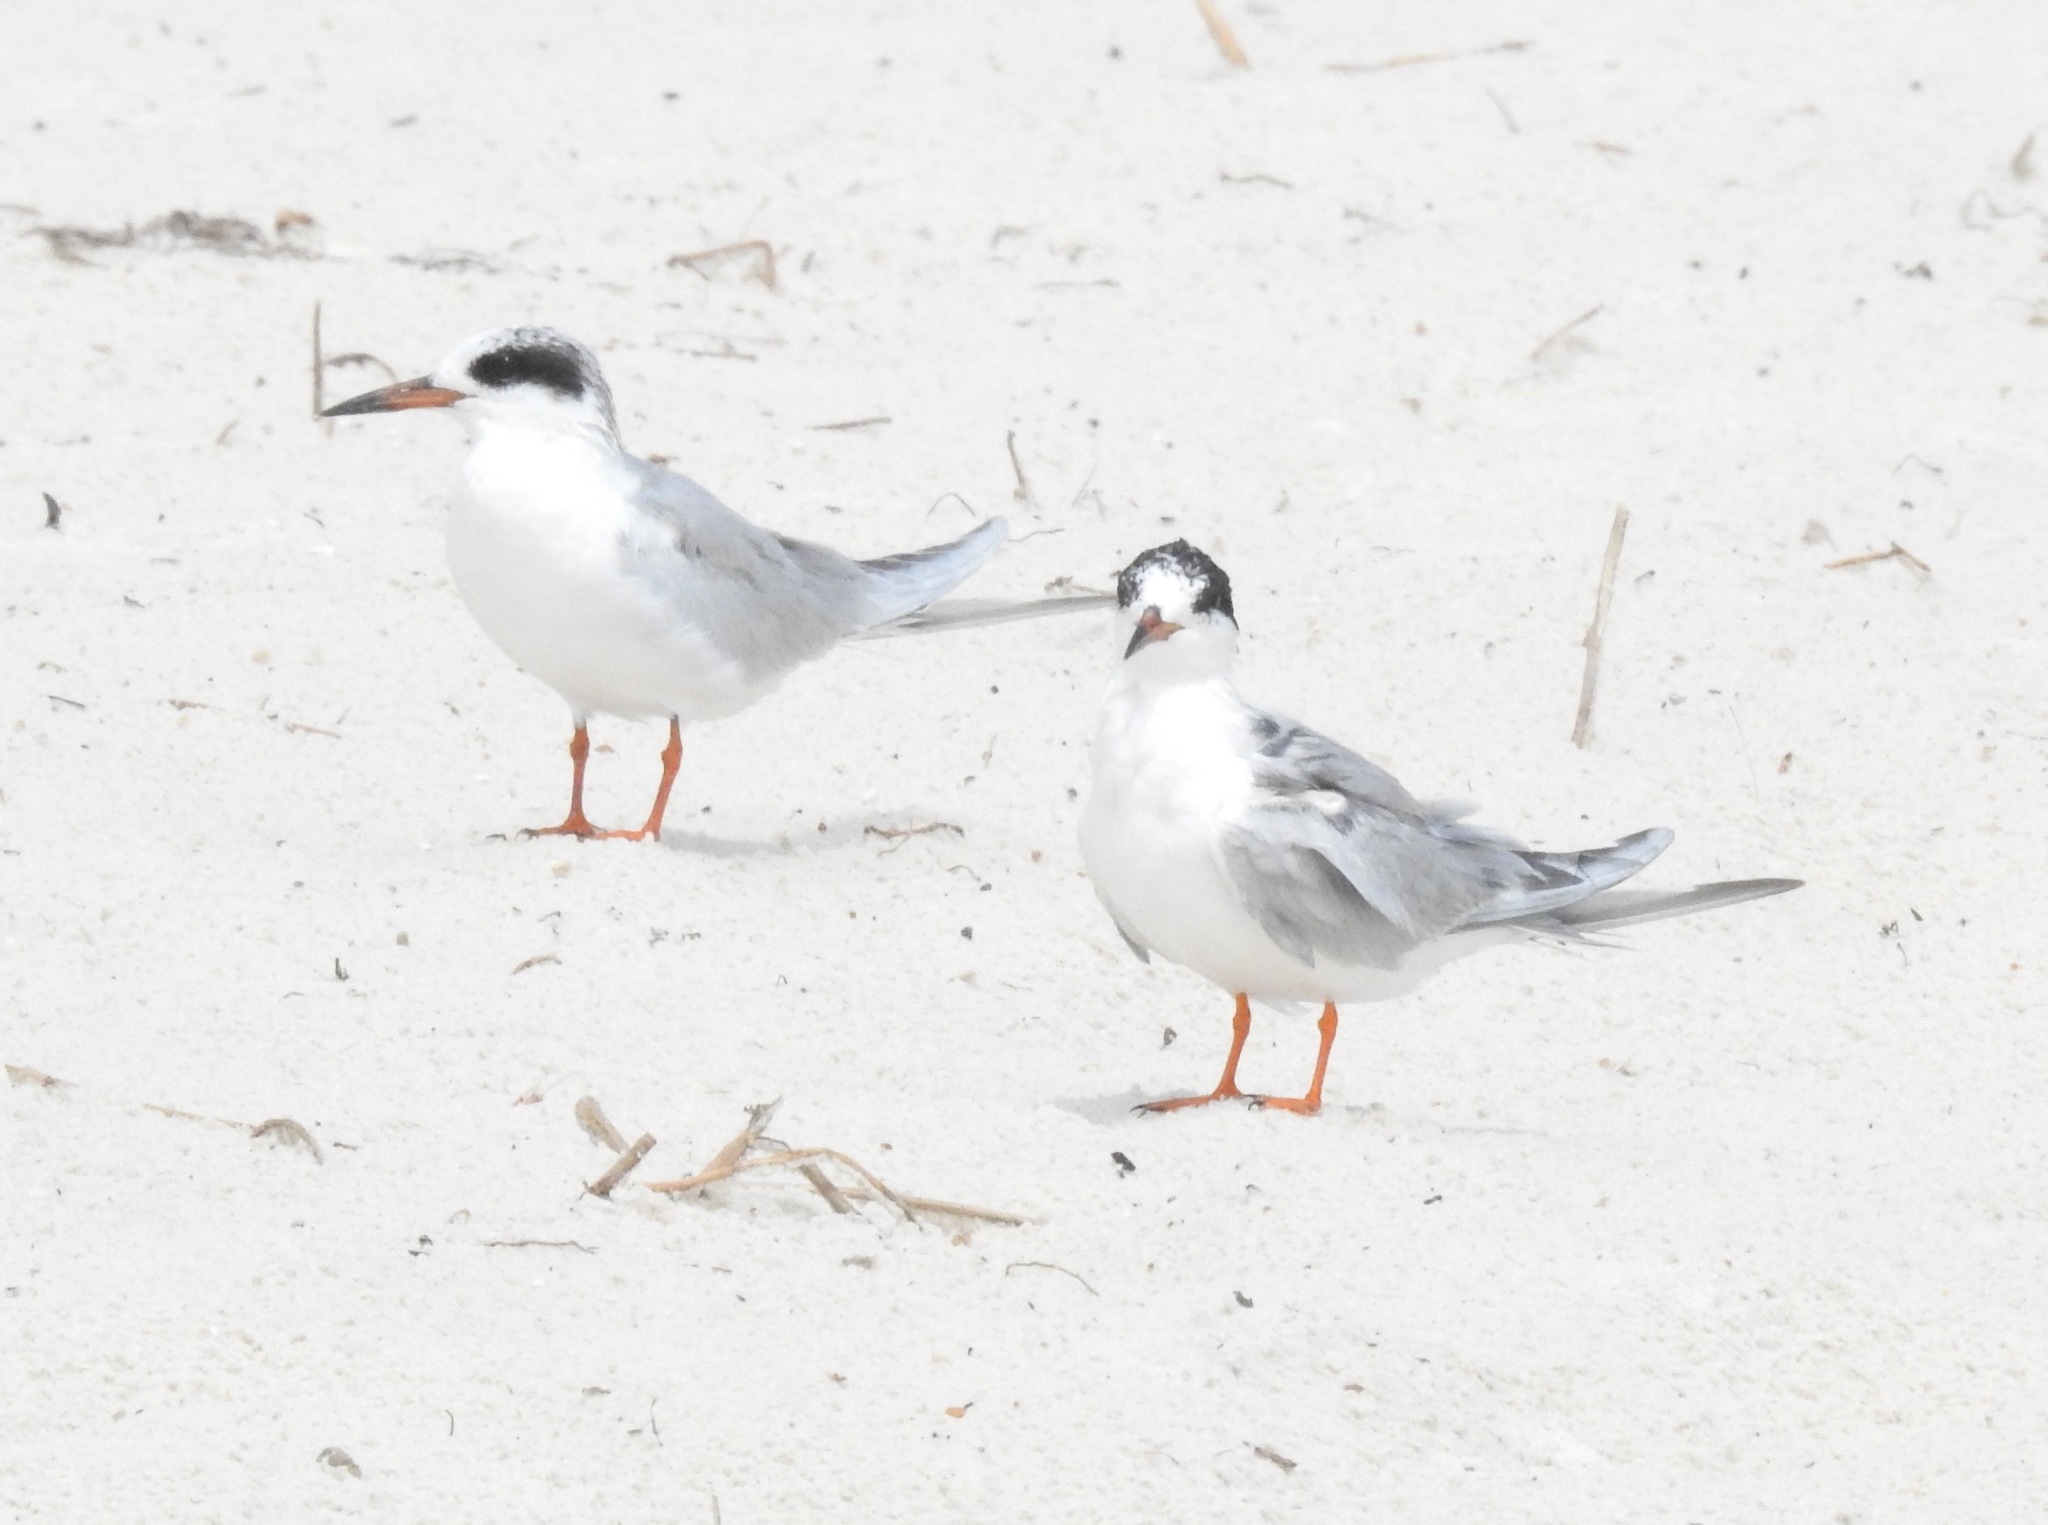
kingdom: Animalia
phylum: Chordata
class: Aves
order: Charadriiformes
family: Laridae
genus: Sterna
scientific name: Sterna forsteri
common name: Forster's tern
